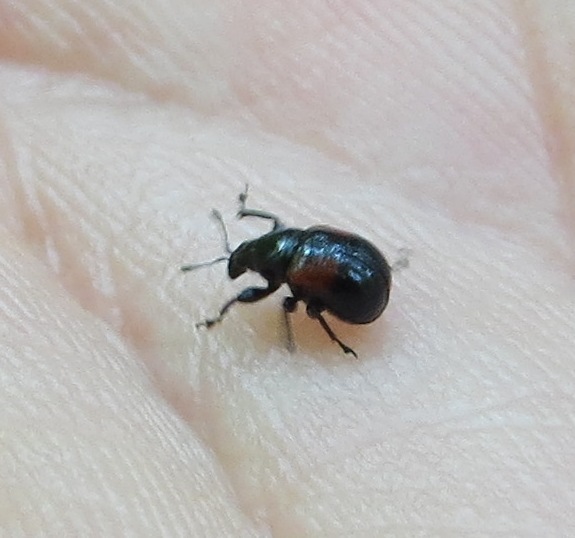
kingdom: Animalia
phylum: Arthropoda
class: Insecta
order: Coleoptera
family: Attelabidae
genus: Attelabus
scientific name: Attelabus bipustulatus
